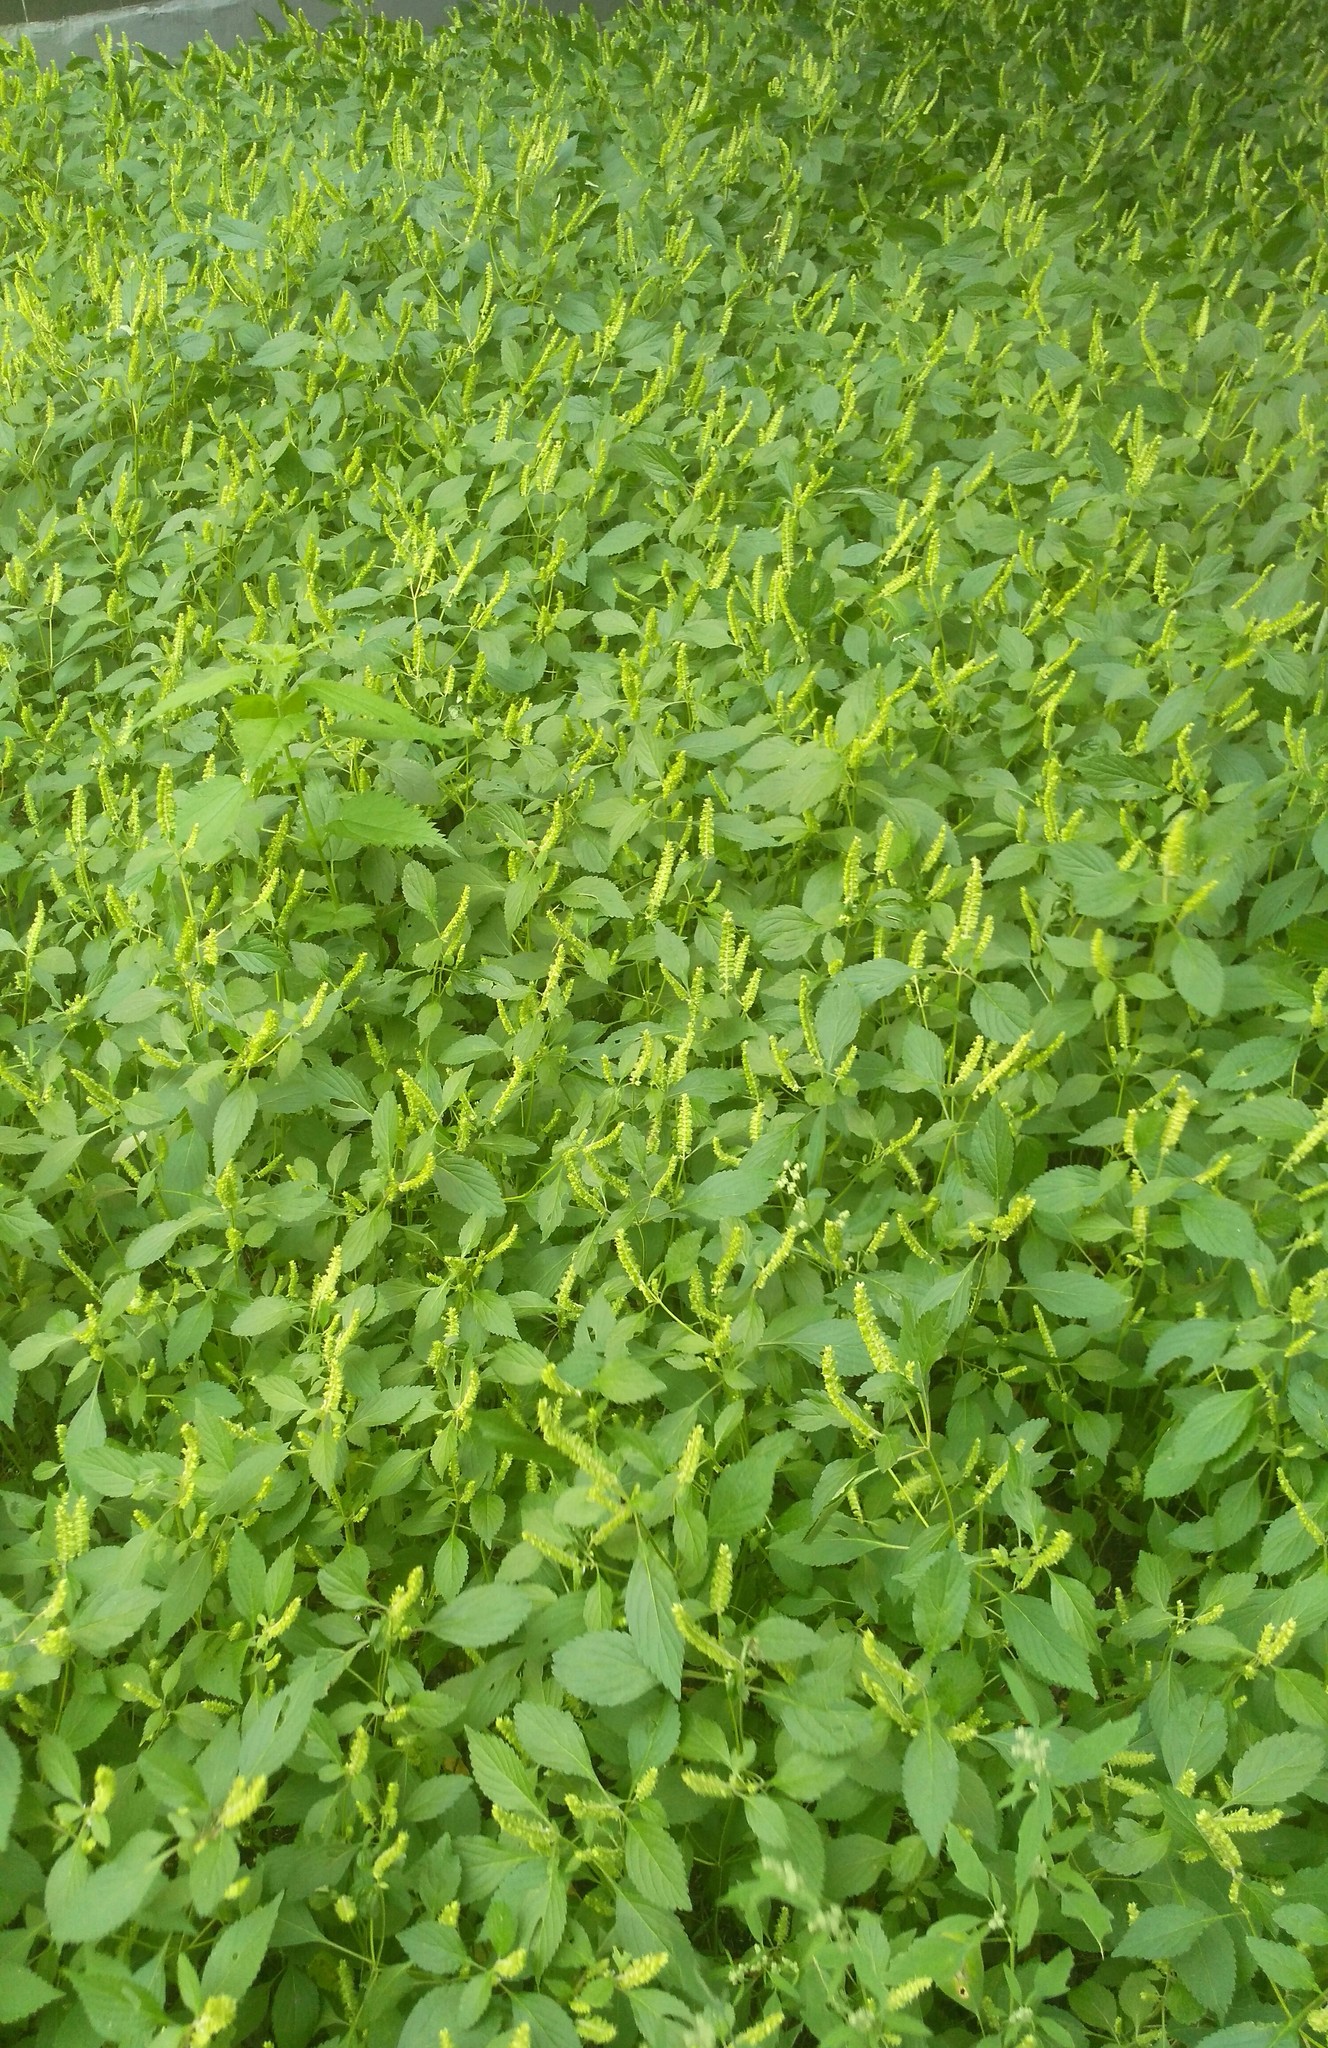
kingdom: Plantae
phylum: Tracheophyta
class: Magnoliopsida
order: Lamiales
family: Lamiaceae
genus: Elsholtzia
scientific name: Elsholtzia ciliata
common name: Ciliate elsholtzia
